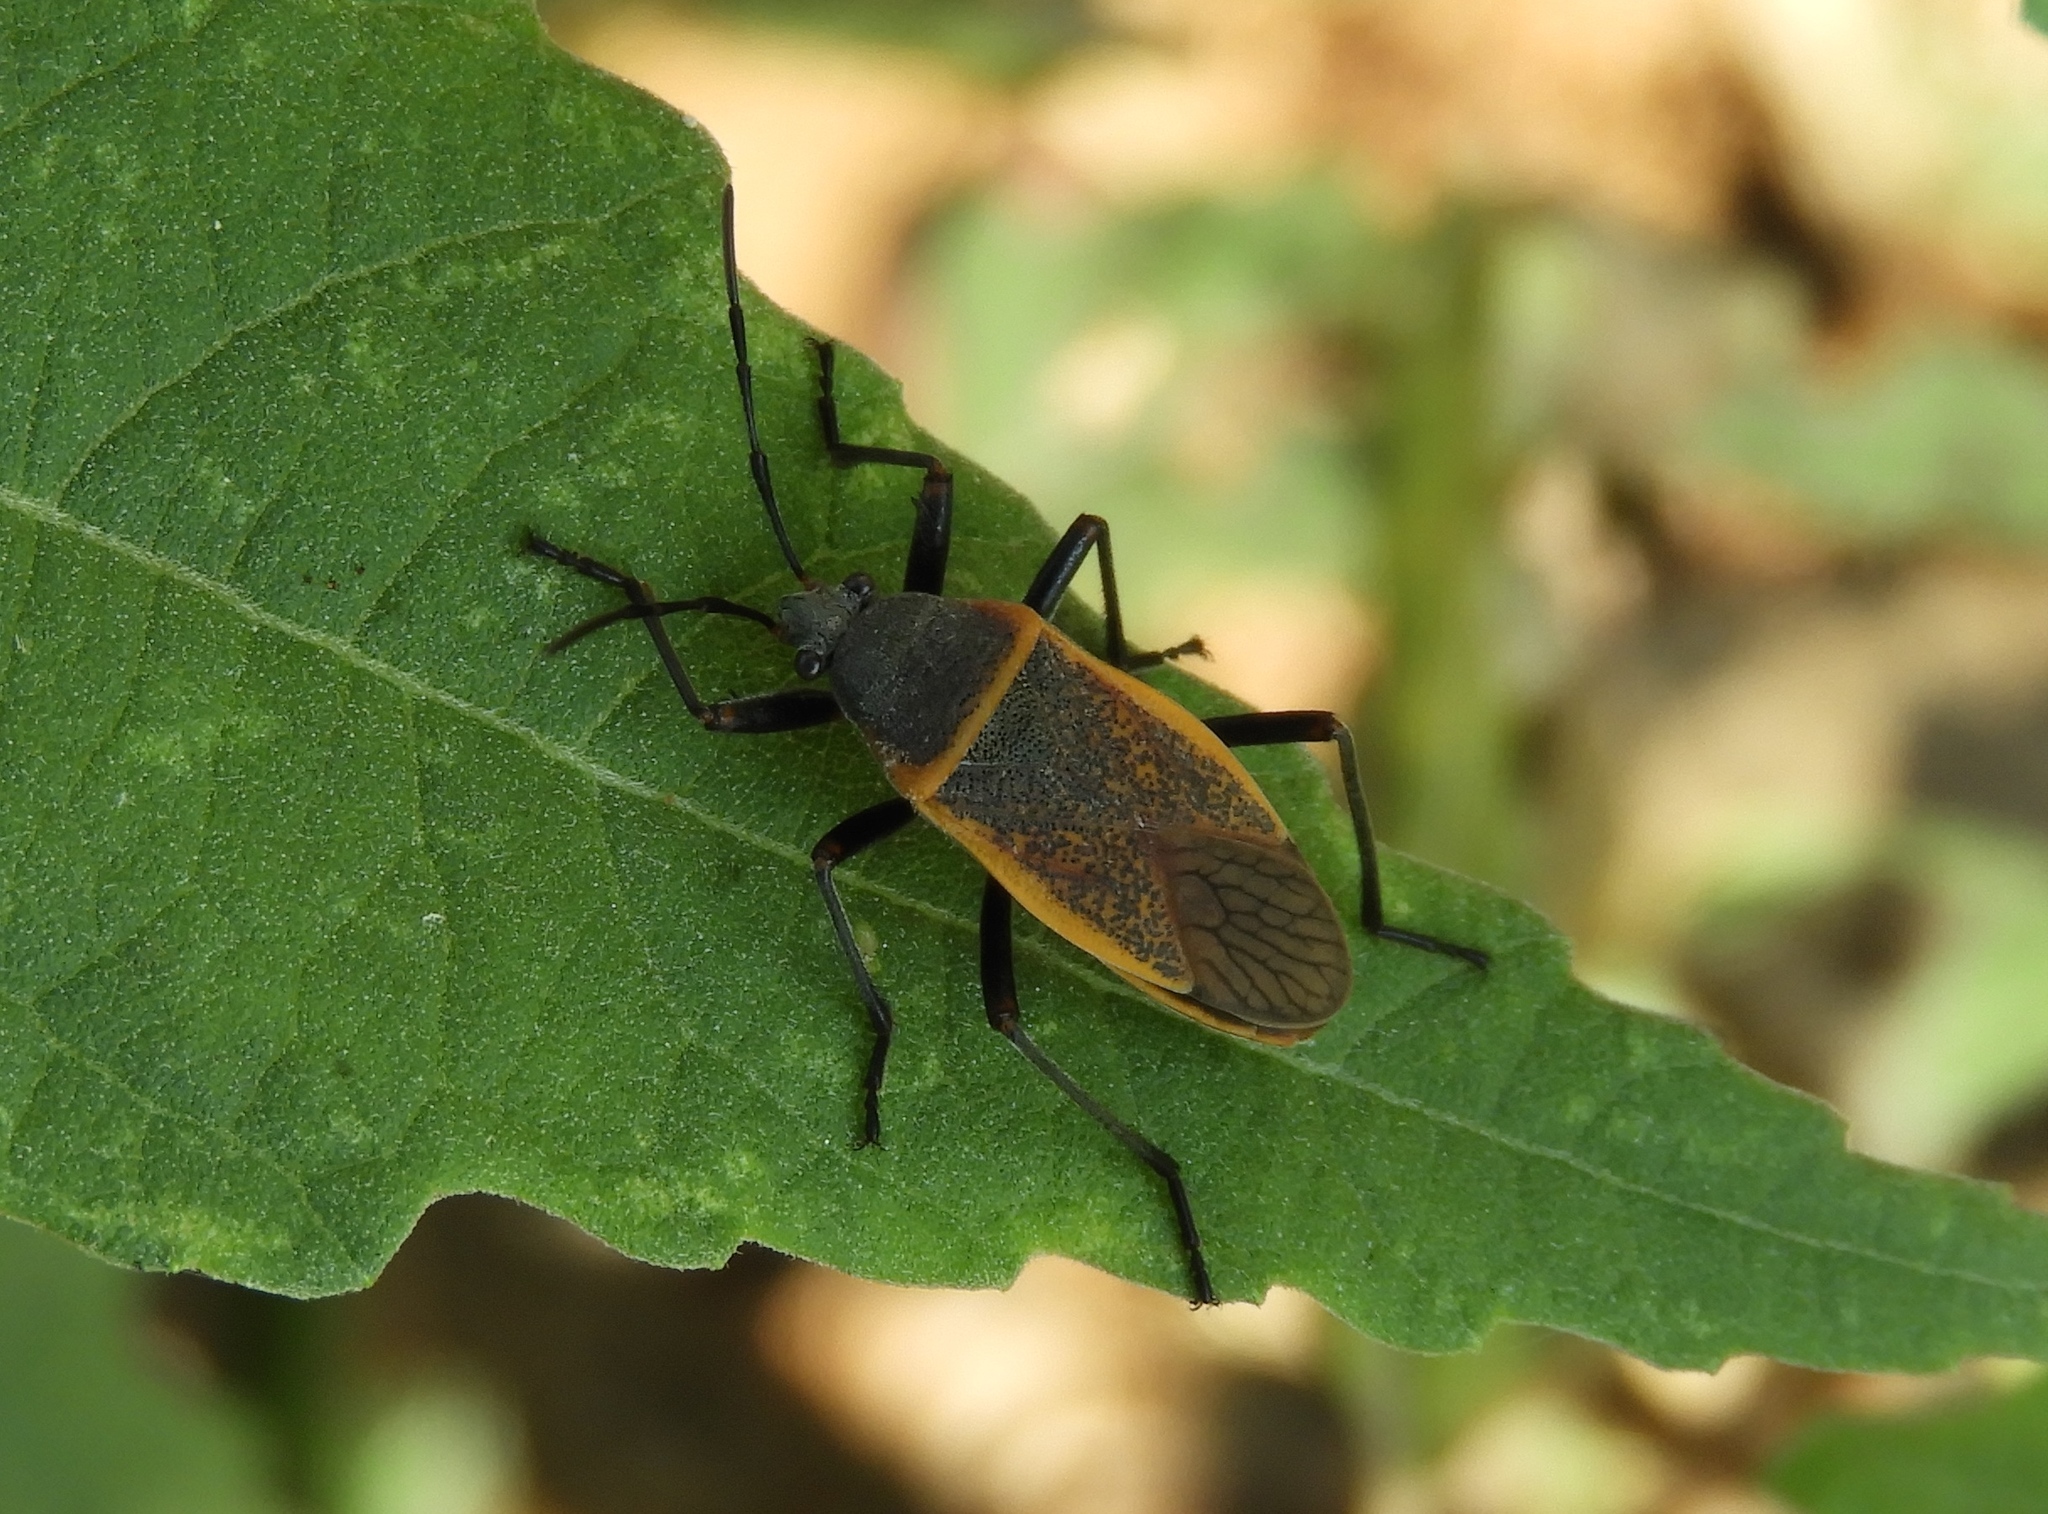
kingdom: Animalia
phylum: Arthropoda
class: Insecta
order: Hemiptera
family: Largidae
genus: Largus
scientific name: Largus
